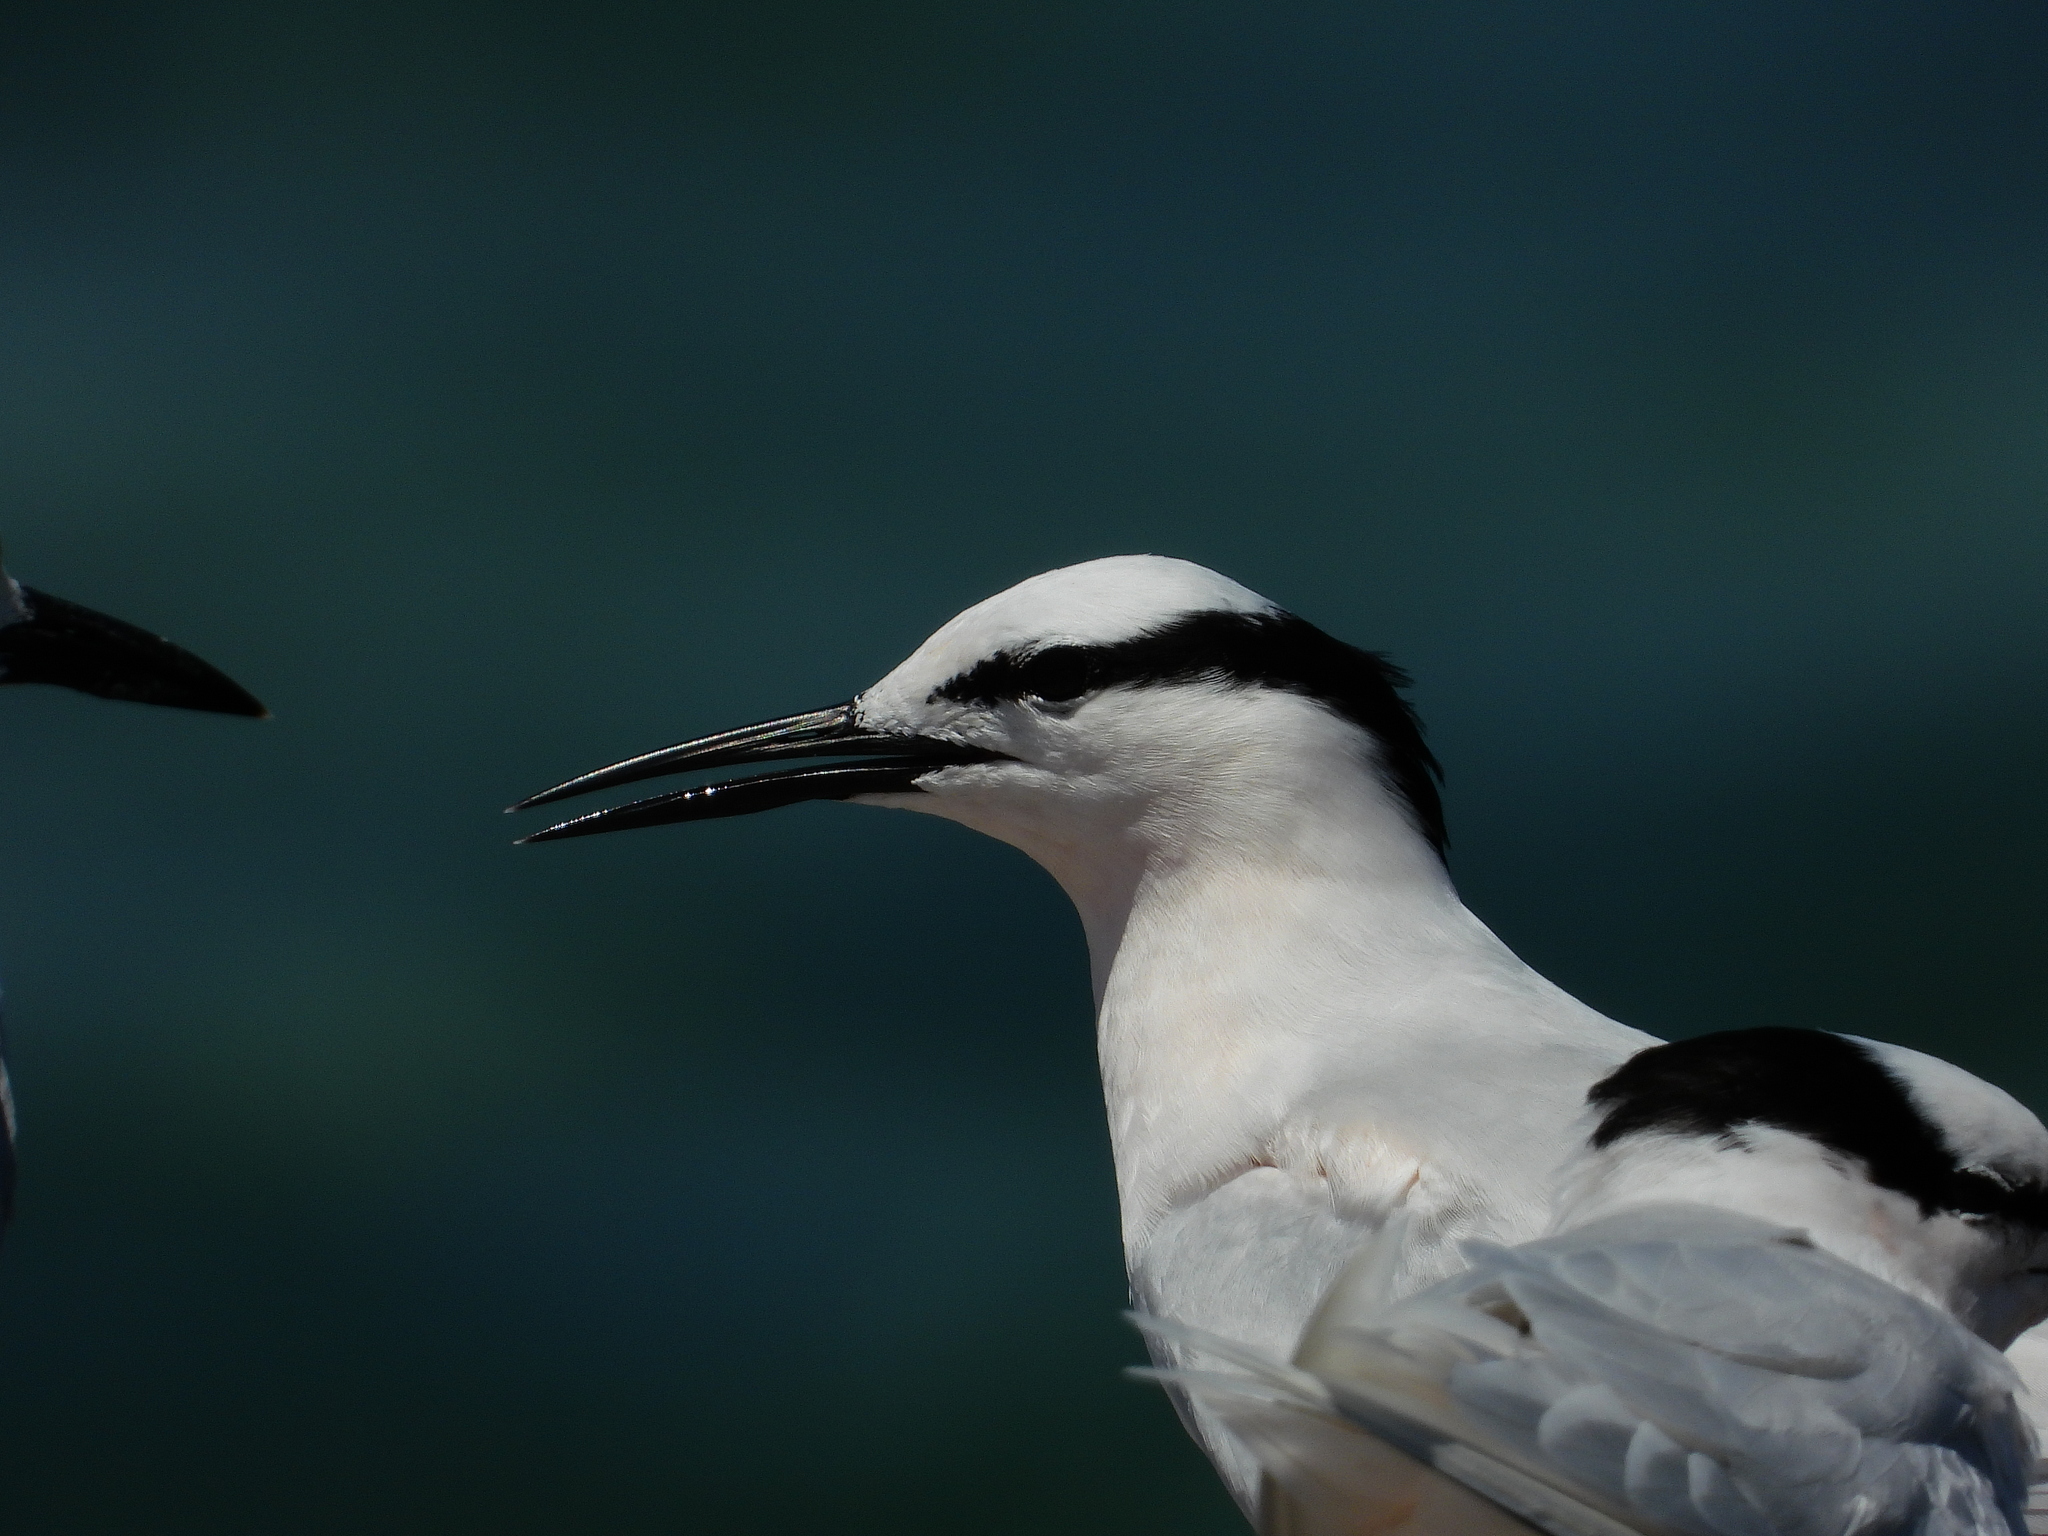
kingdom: Animalia
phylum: Chordata
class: Aves
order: Charadriiformes
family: Laridae
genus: Sterna
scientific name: Sterna sumatrana
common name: Black-naped tern
